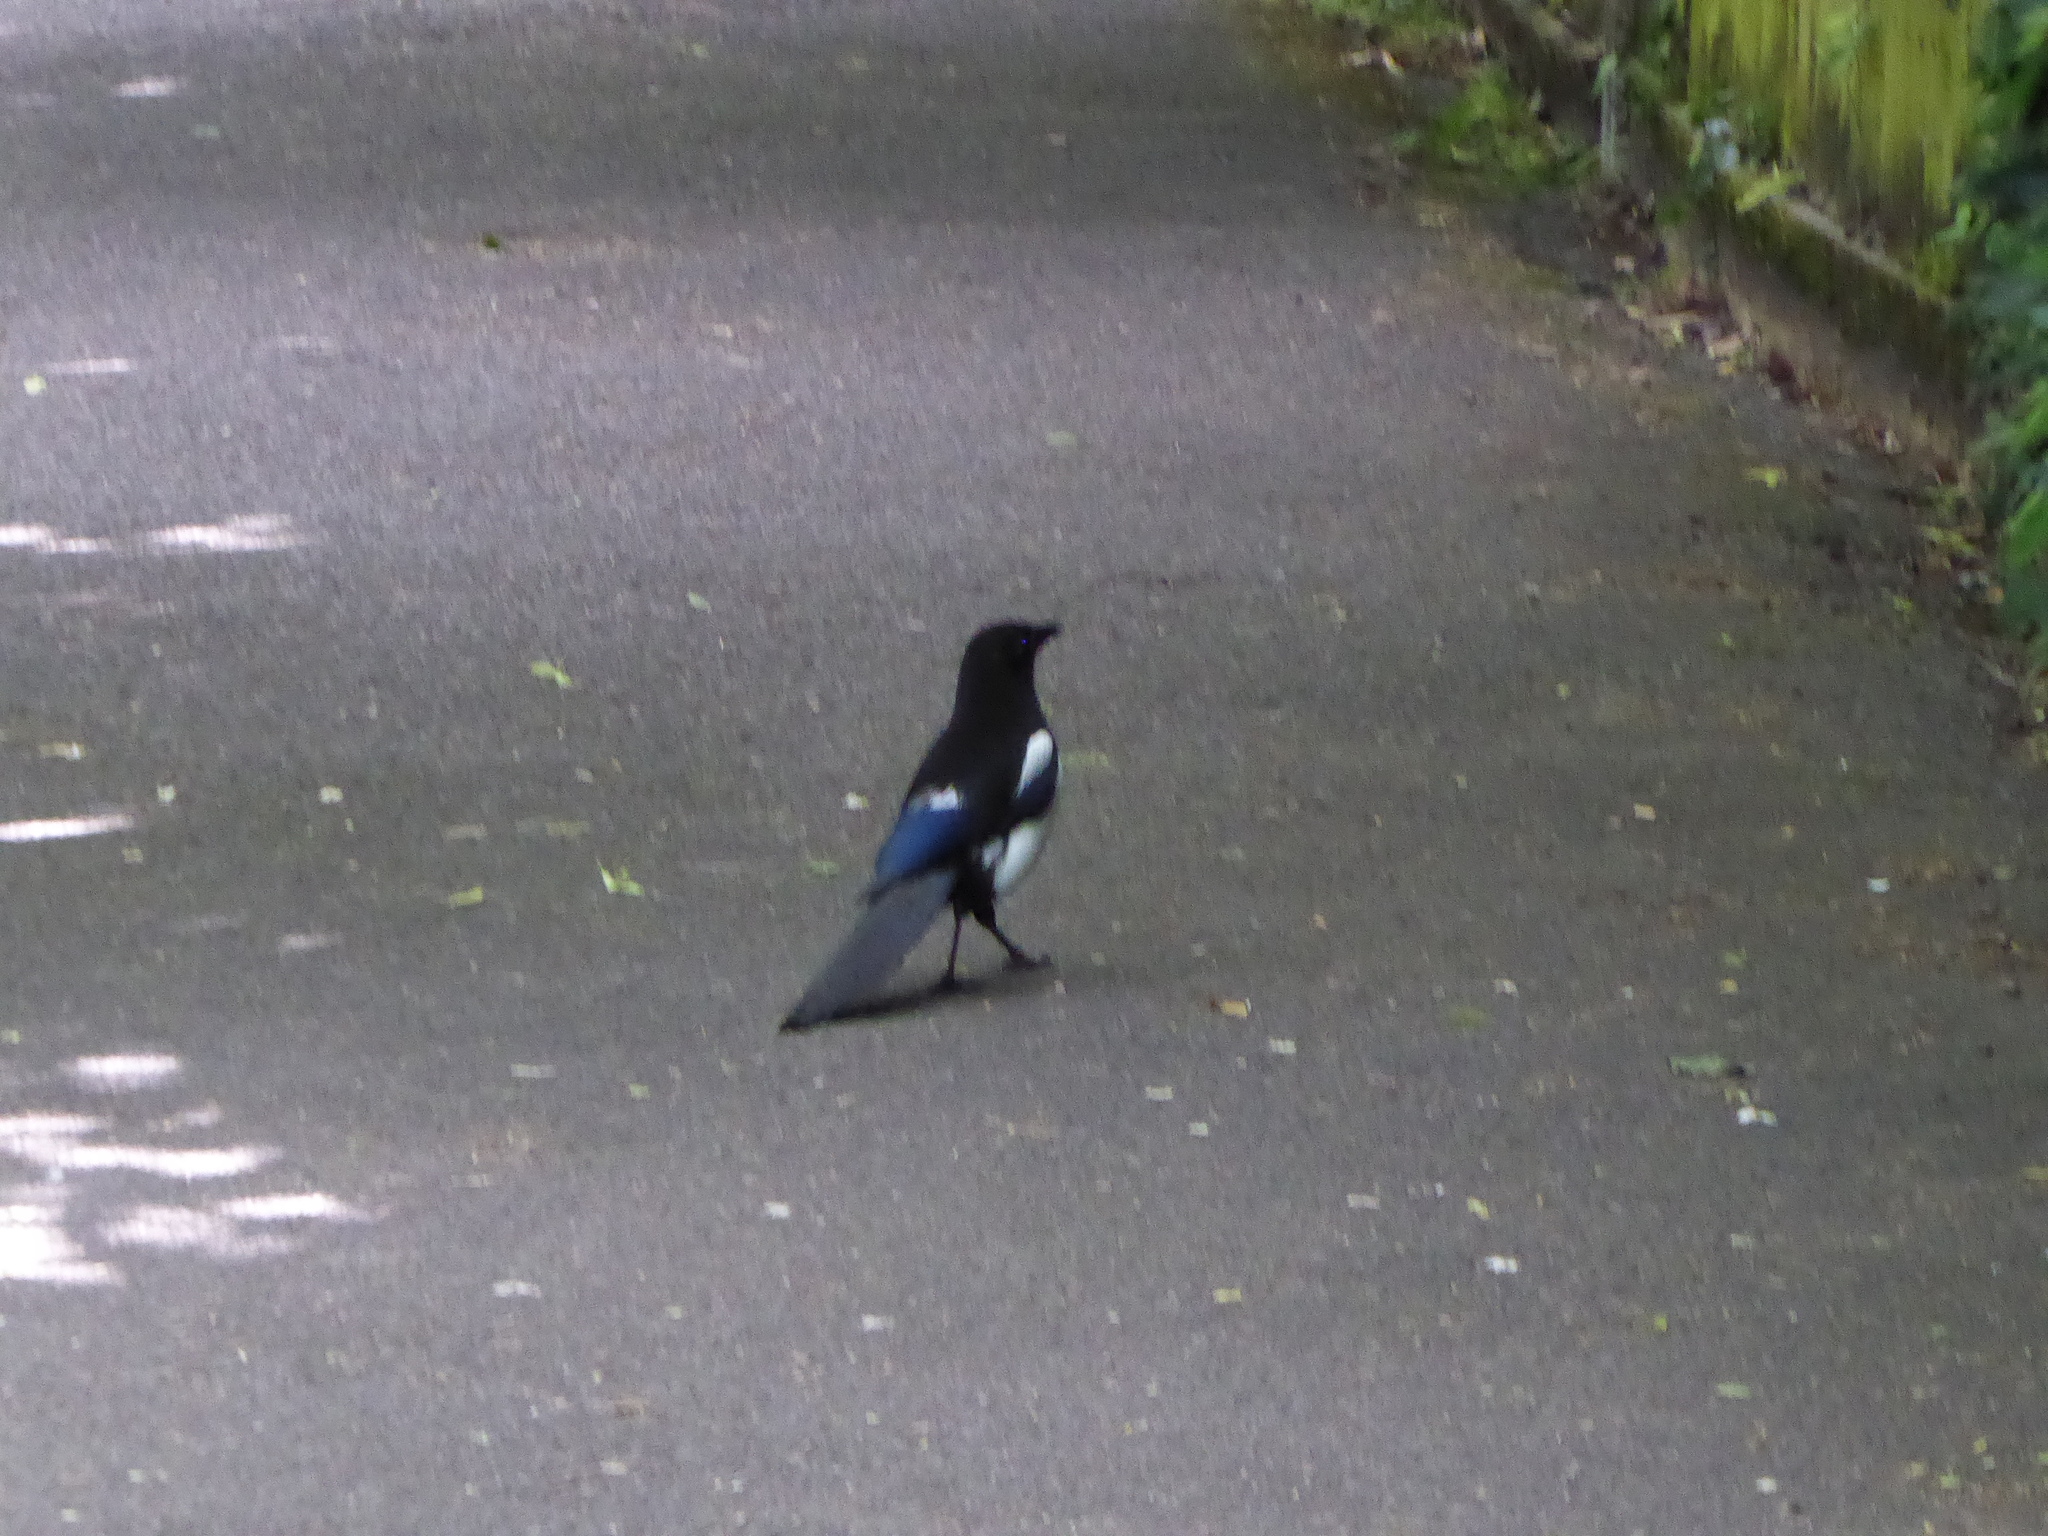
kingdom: Animalia
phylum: Chordata
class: Aves
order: Passeriformes
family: Corvidae
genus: Pica
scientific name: Pica pica
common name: Eurasian magpie
